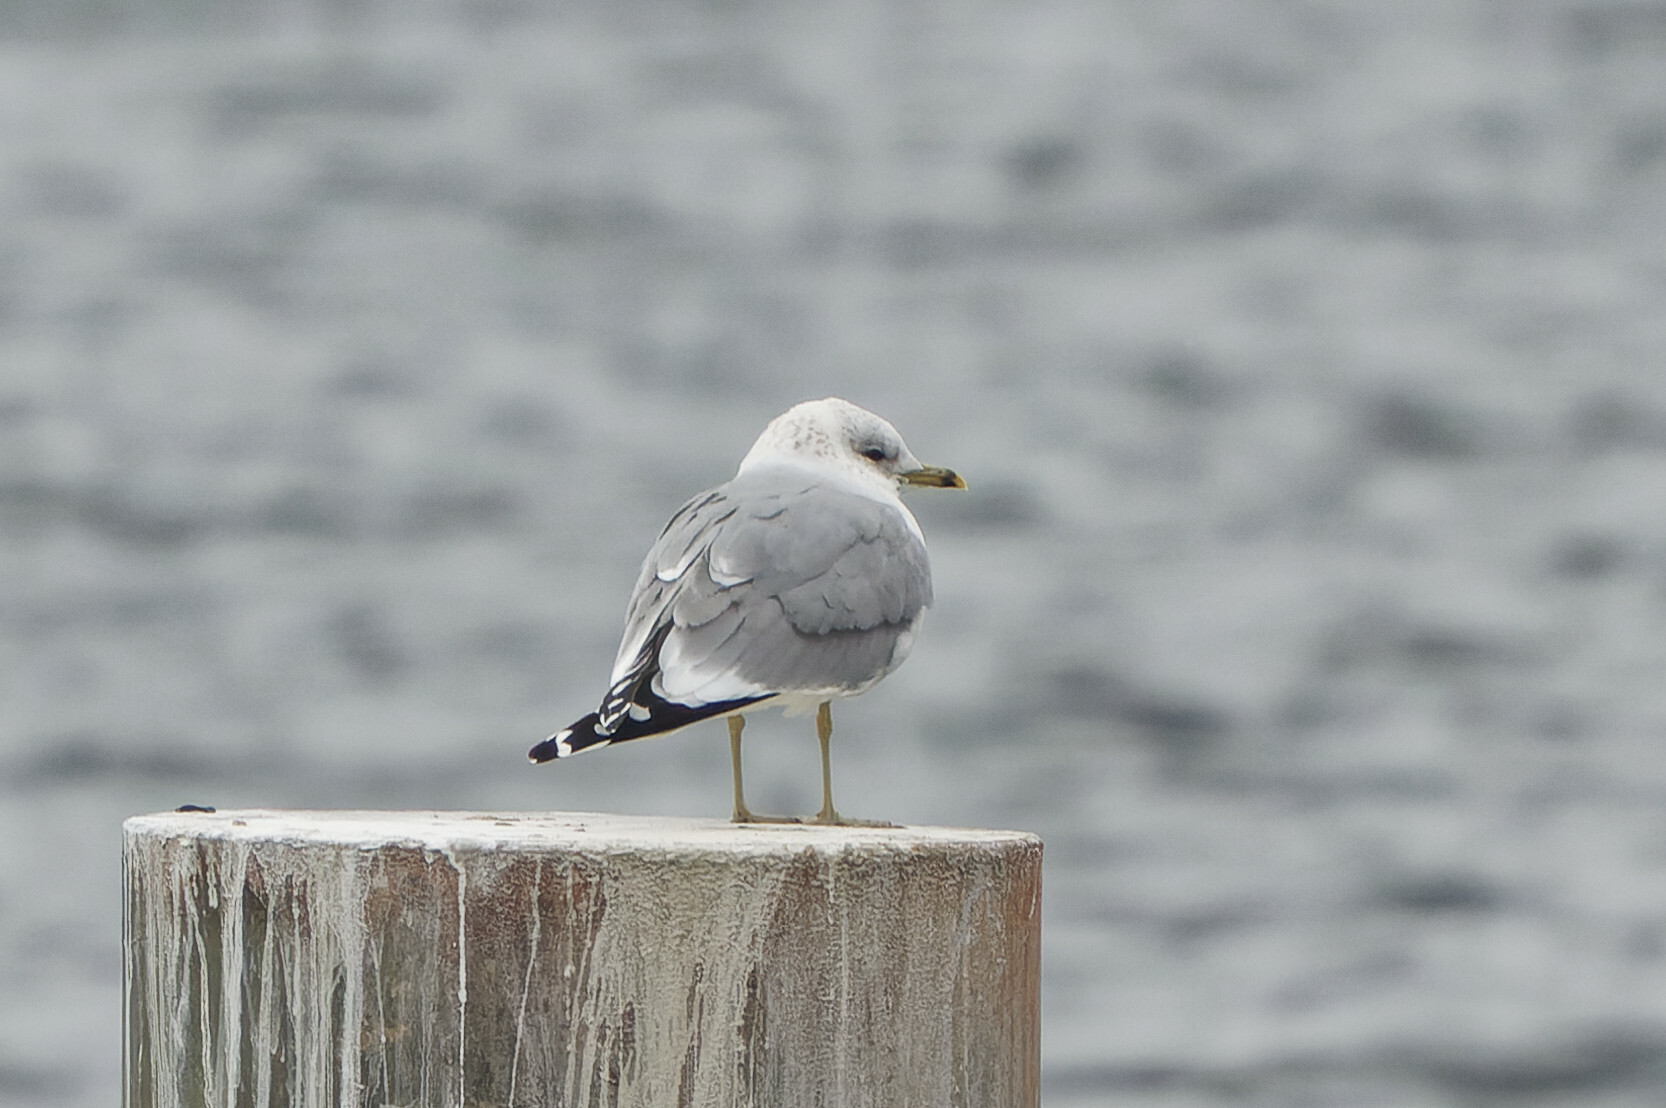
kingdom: Animalia
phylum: Chordata
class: Aves
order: Charadriiformes
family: Laridae
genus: Larus
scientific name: Larus canus
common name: Mew gull
